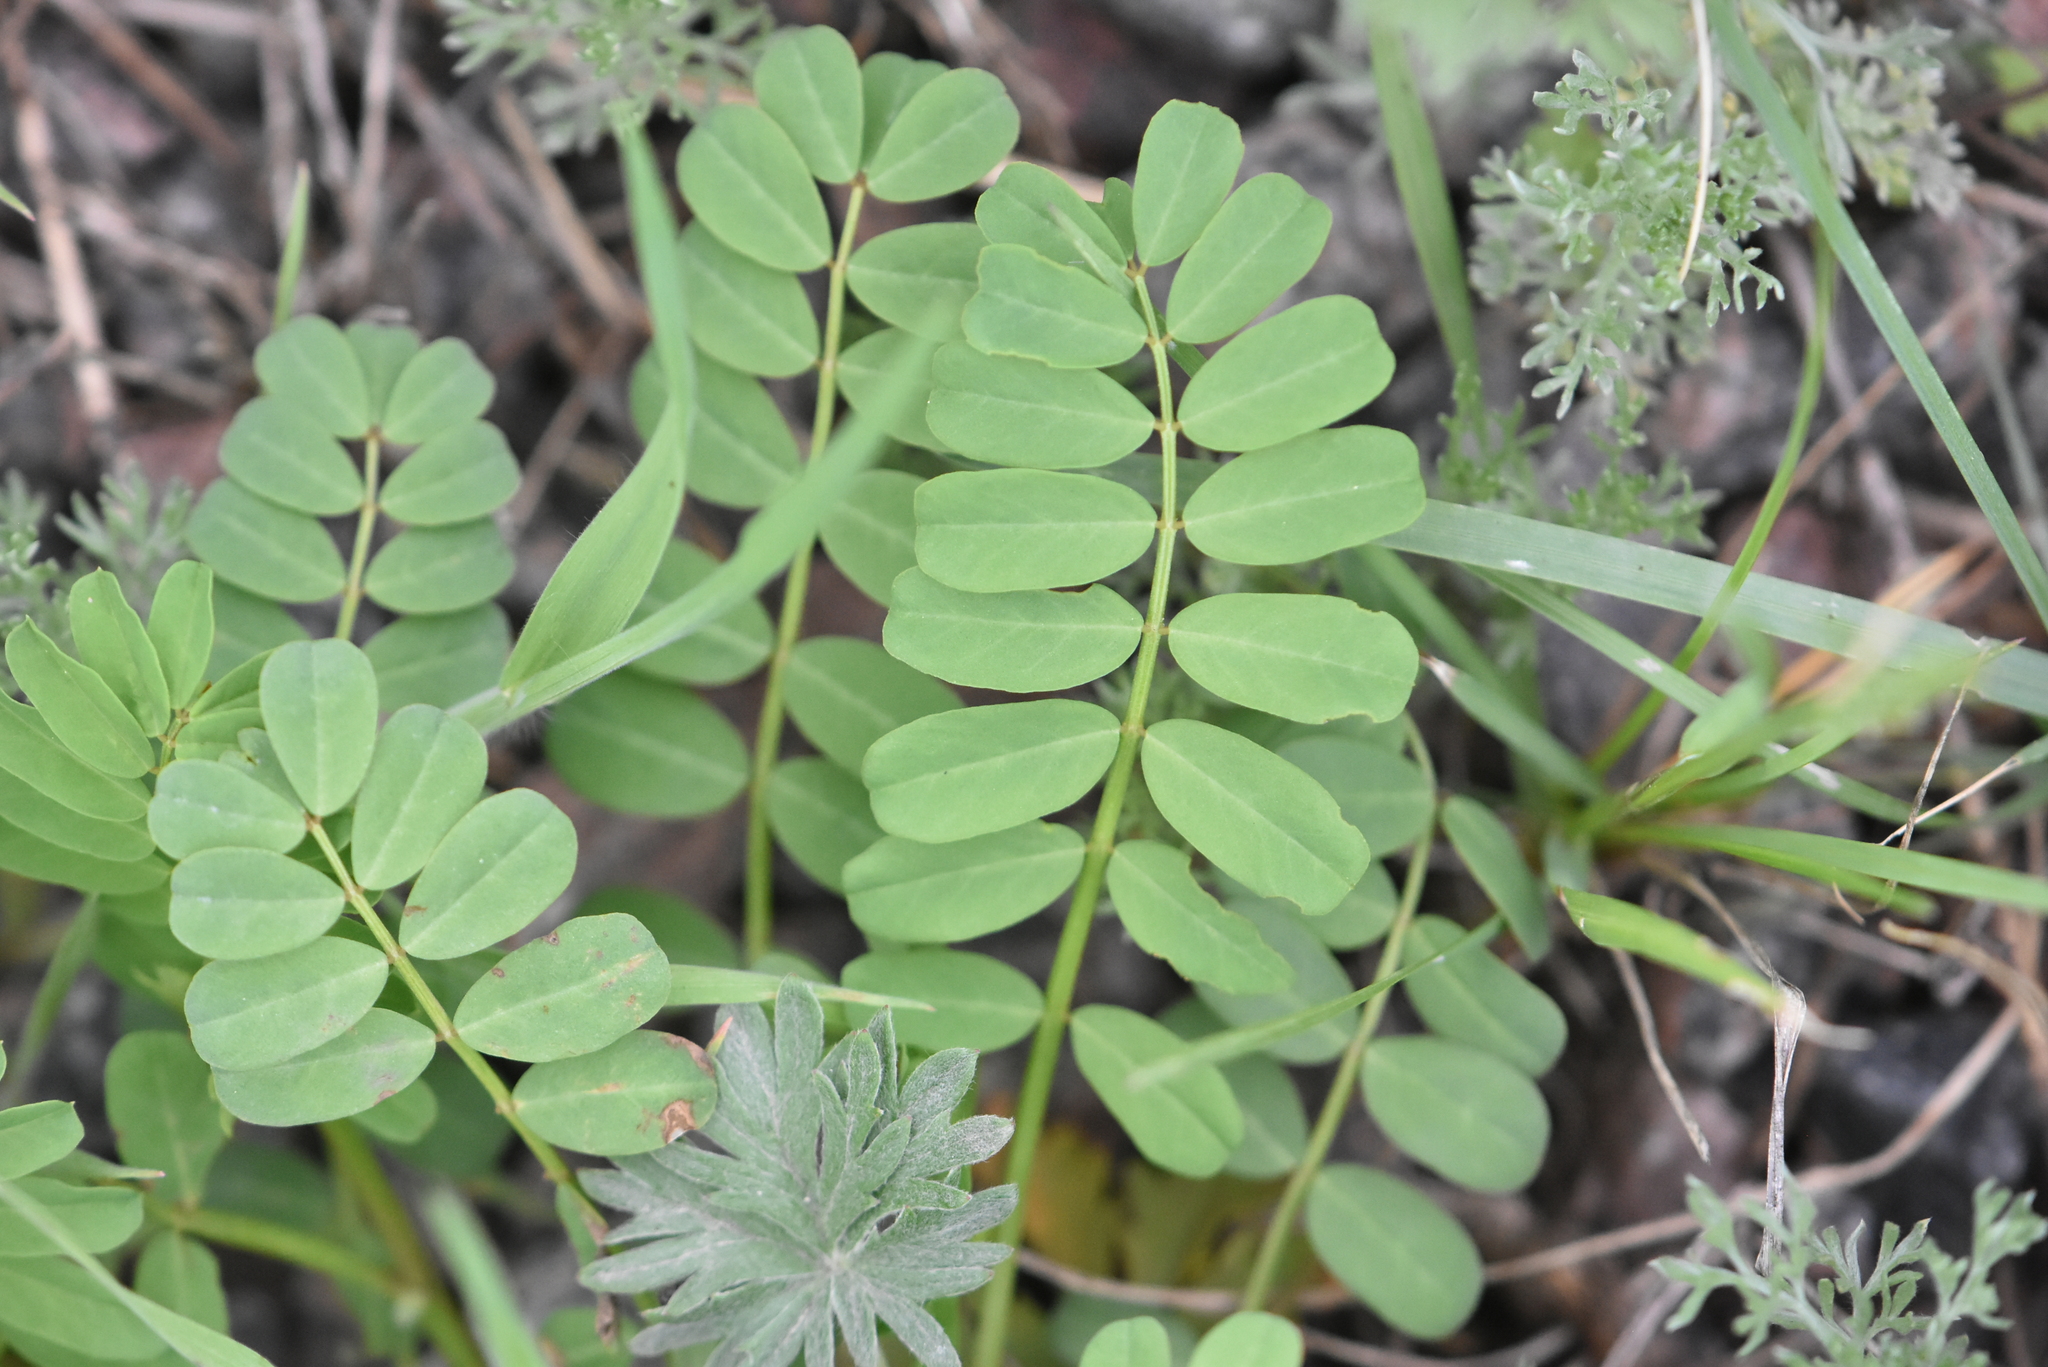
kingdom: Plantae
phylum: Tracheophyta
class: Magnoliopsida
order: Fabales
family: Fabaceae
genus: Coronilla
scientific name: Coronilla varia
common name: Crownvetch
